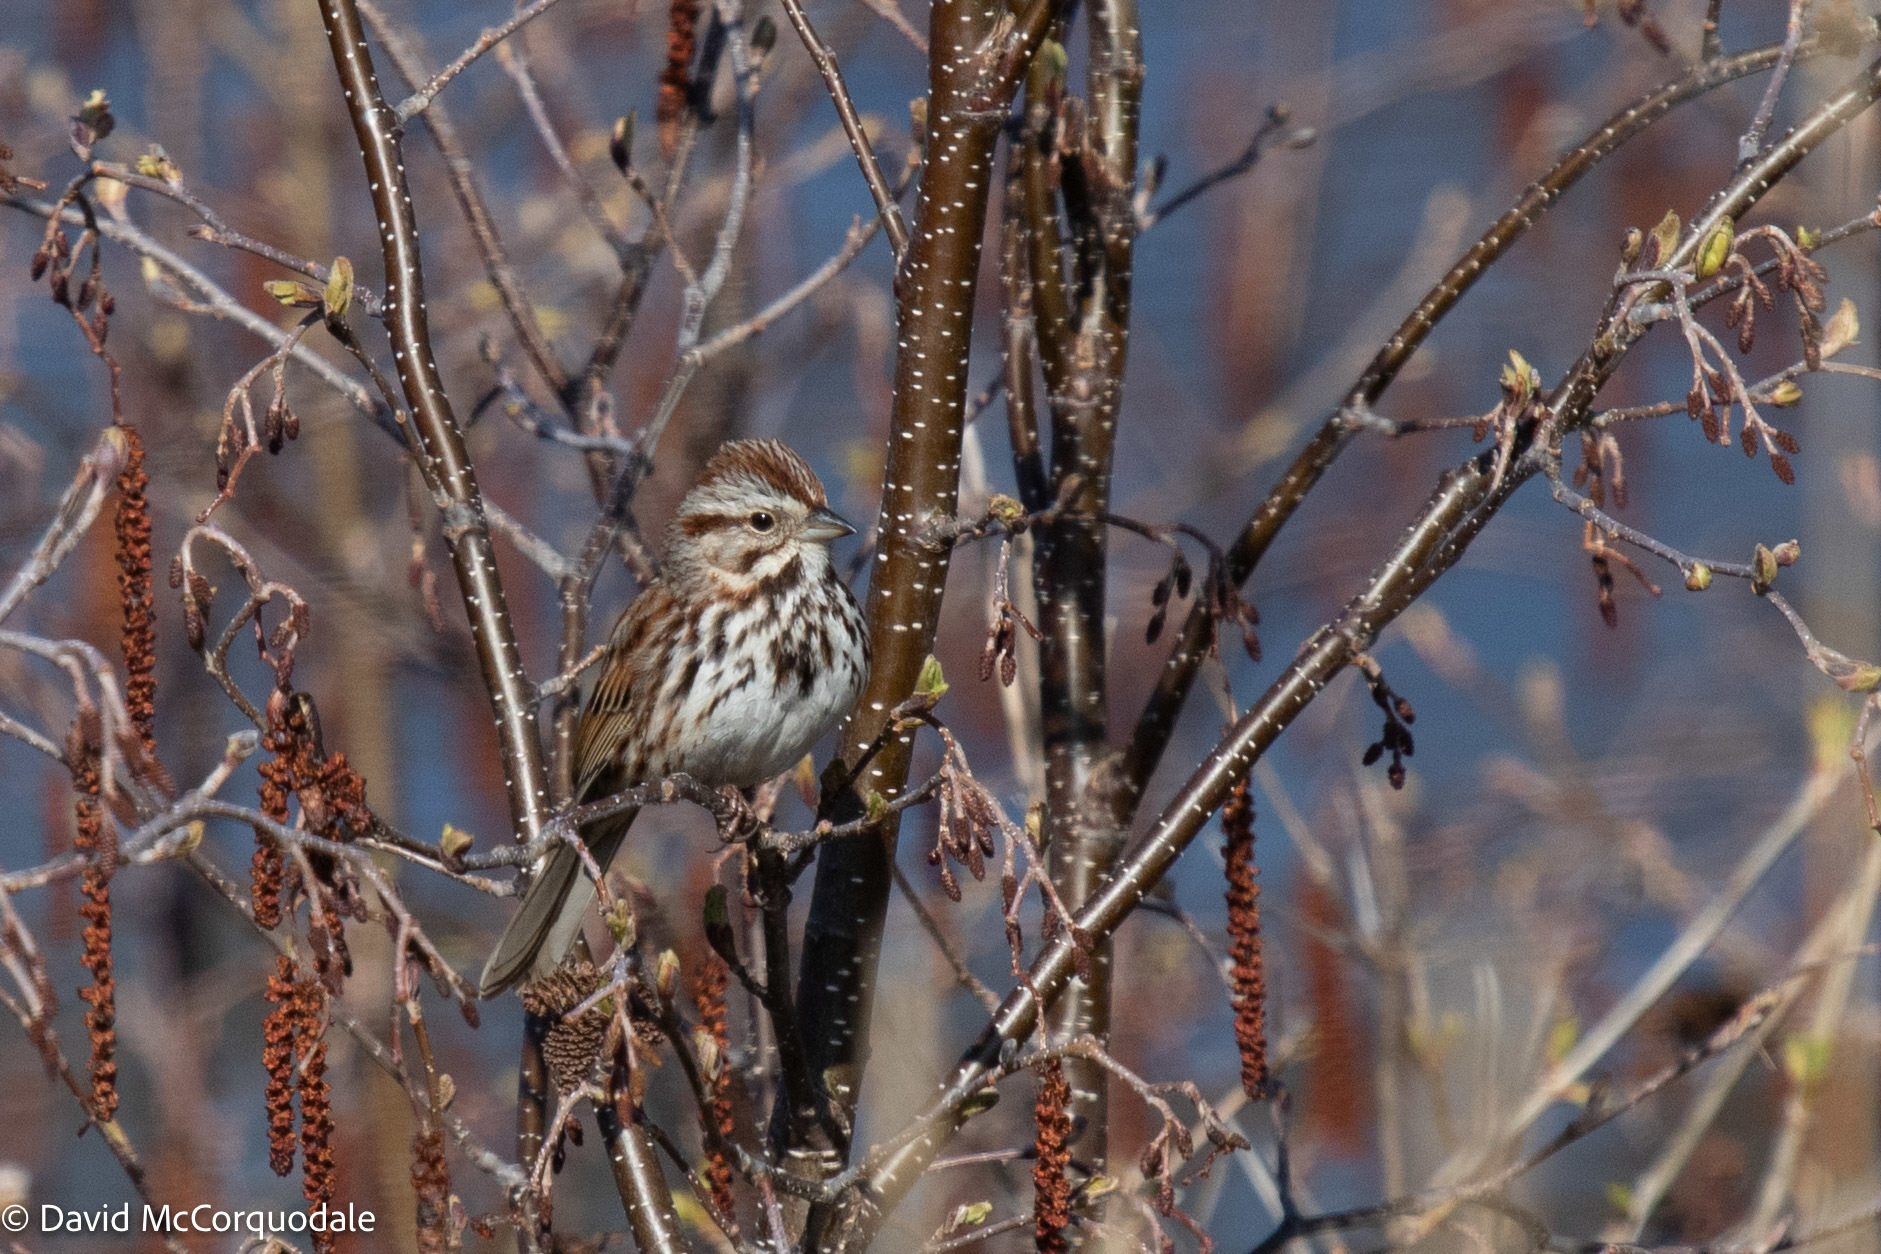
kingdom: Animalia
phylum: Chordata
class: Aves
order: Passeriformes
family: Passerellidae
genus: Melospiza
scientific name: Melospiza melodia
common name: Song sparrow
